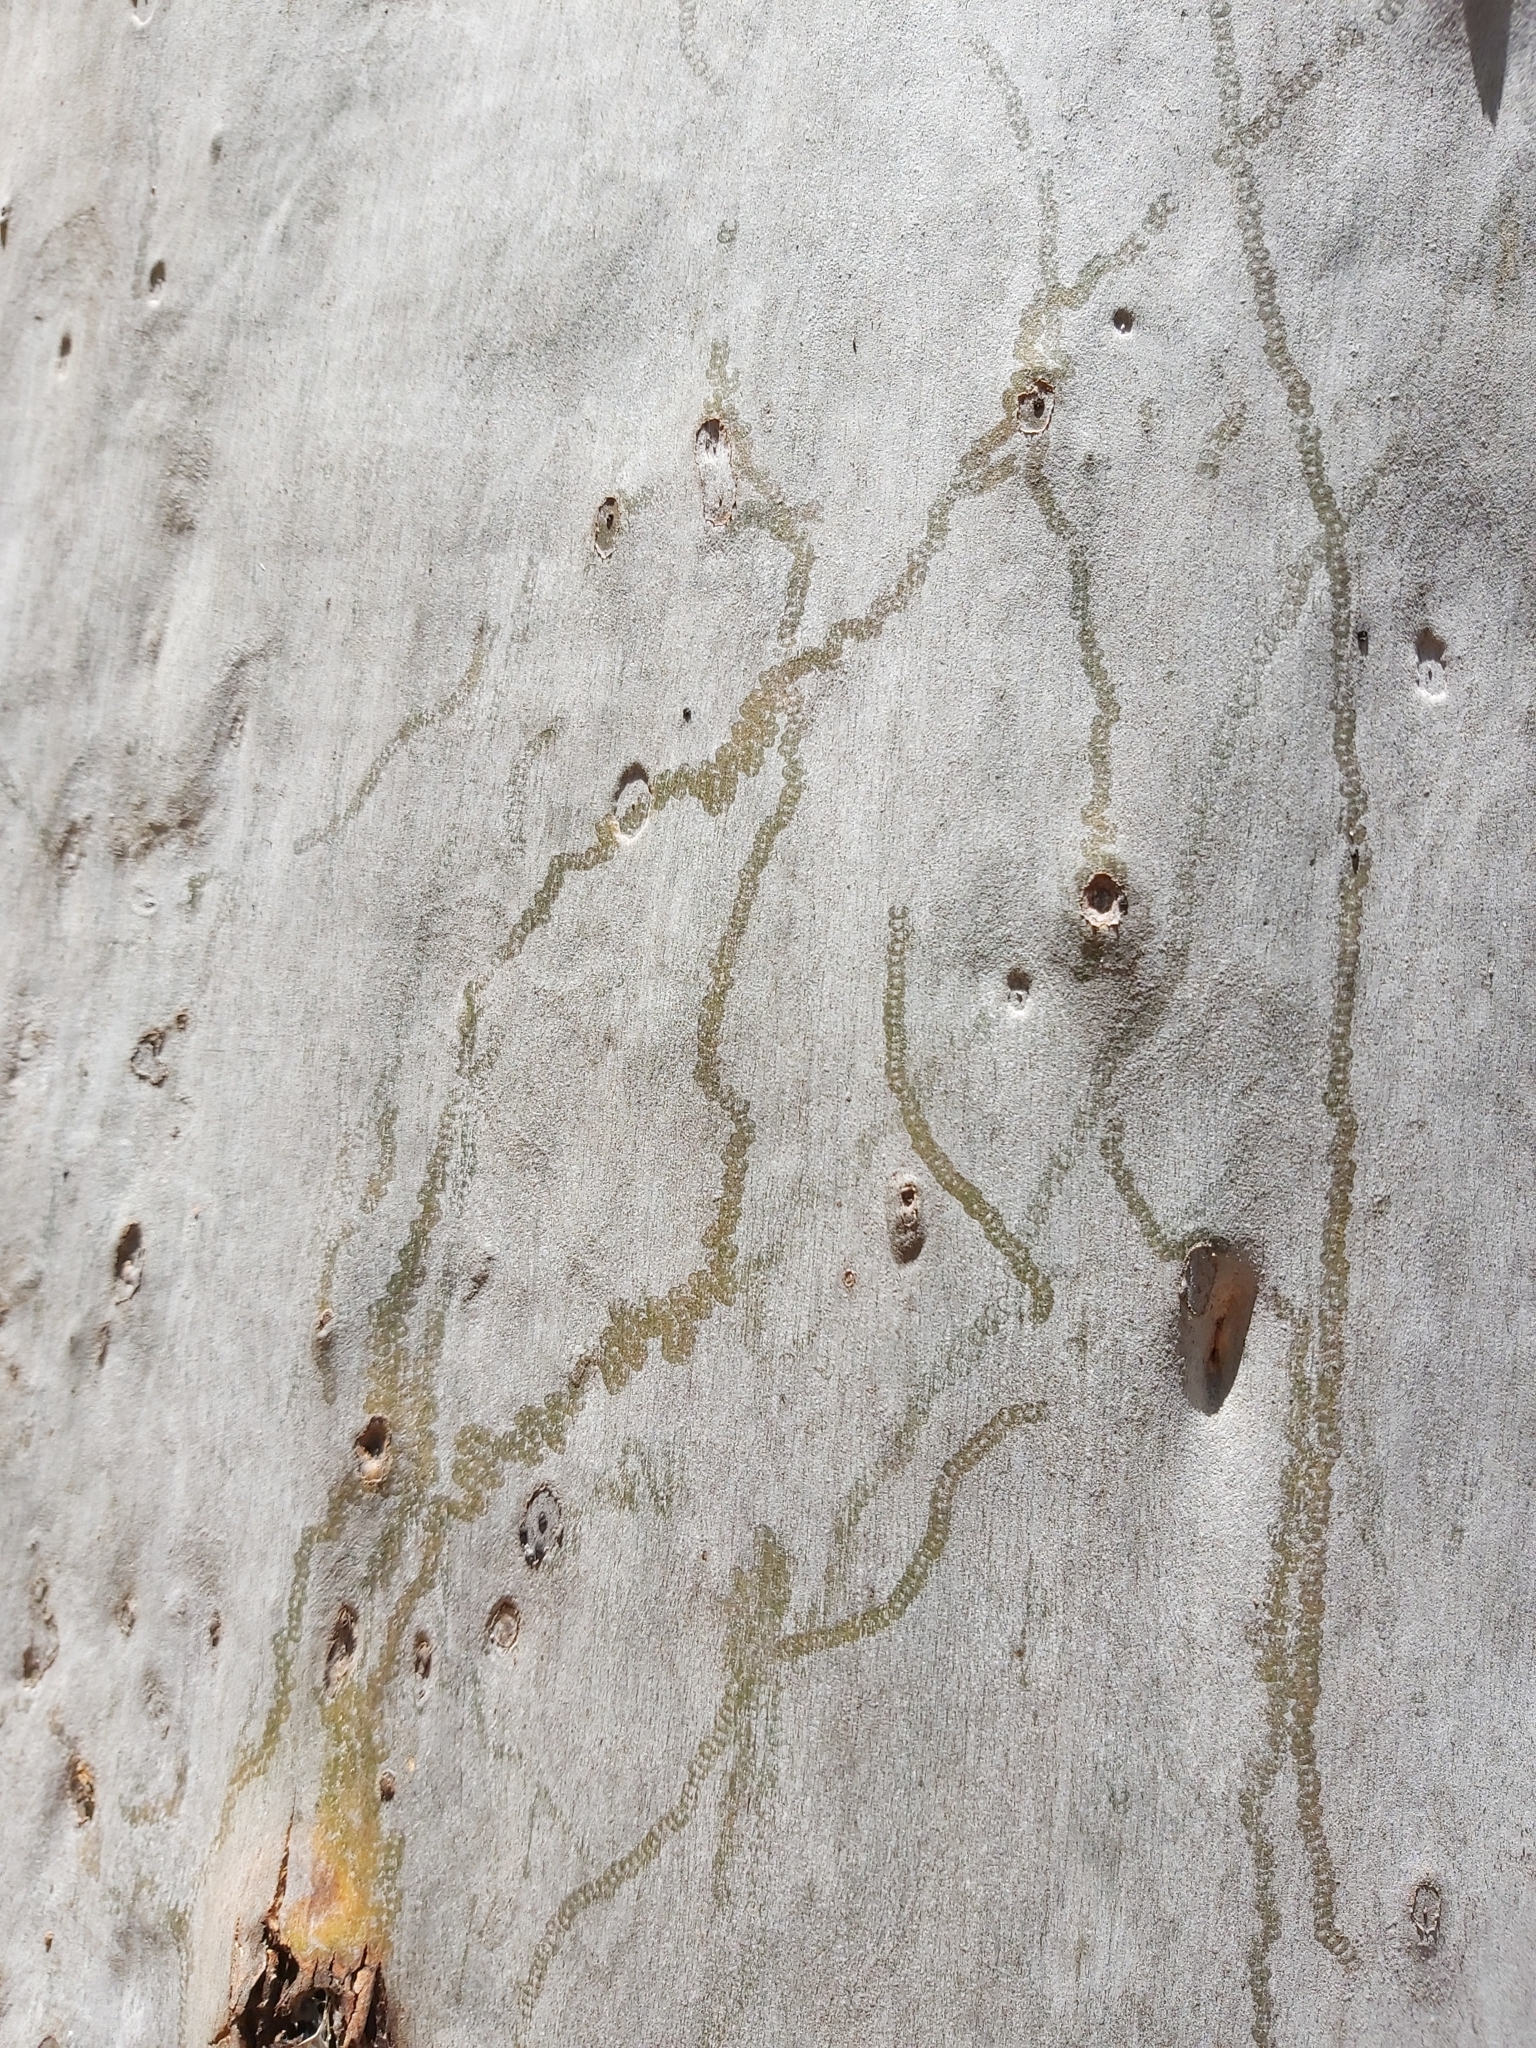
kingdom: Animalia
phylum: Mollusca
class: Gastropoda
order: Stylommatophora
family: Athoracophoridae
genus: Triboniophorus
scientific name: Triboniophorus graeffei
